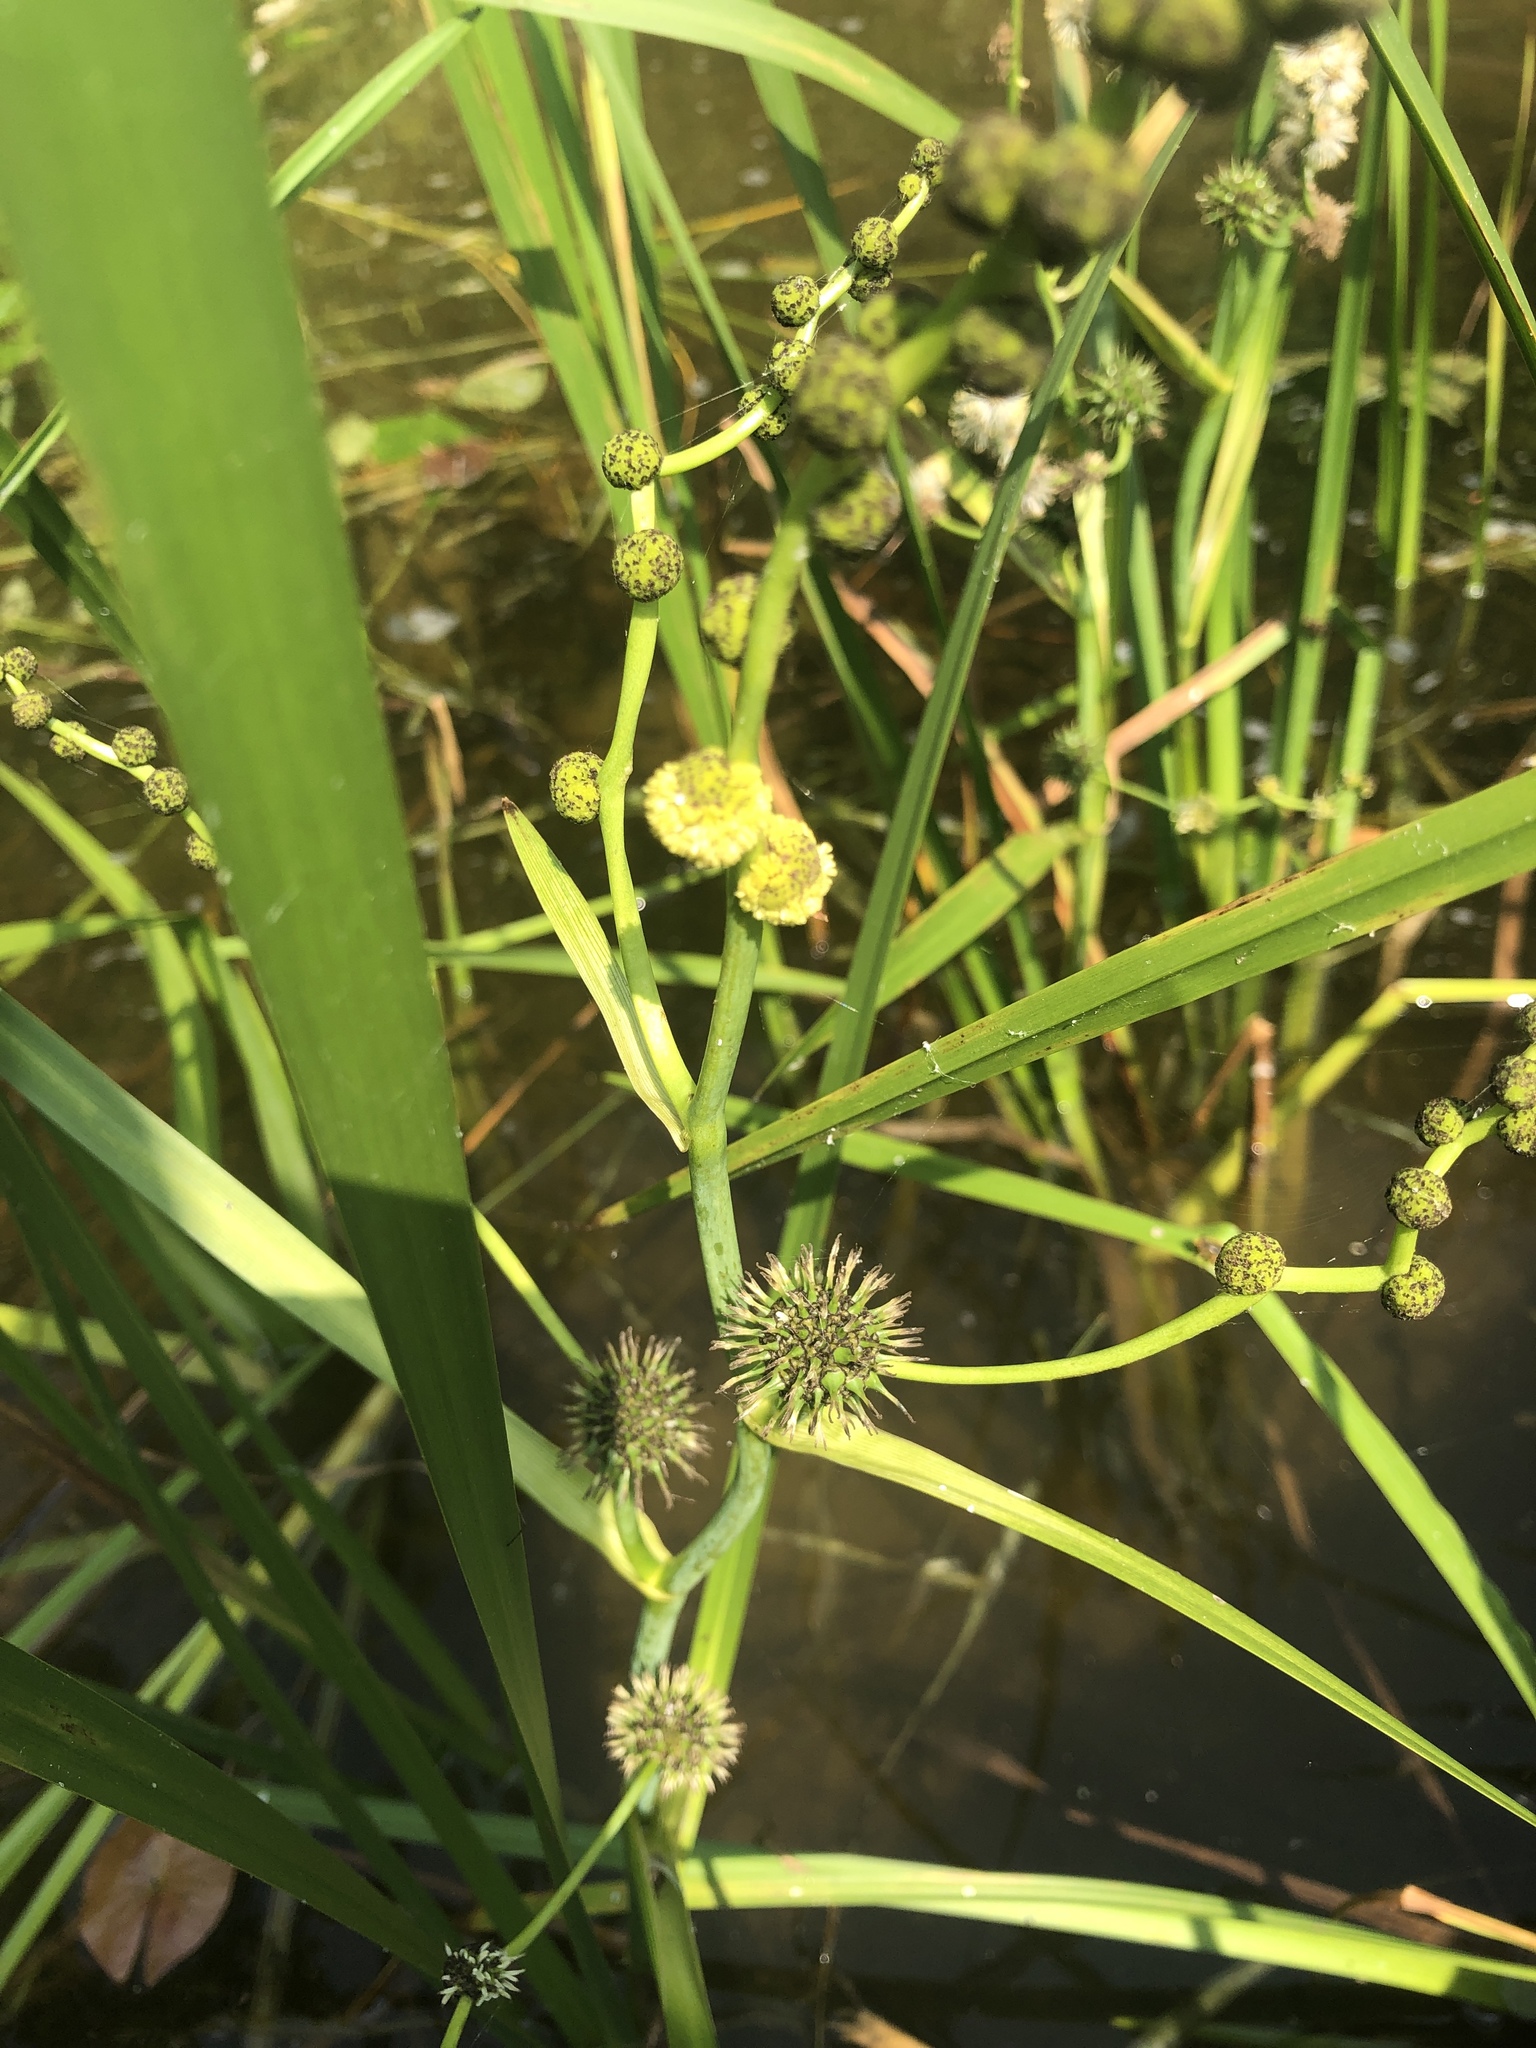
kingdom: Plantae
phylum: Tracheophyta
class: Liliopsida
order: Poales
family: Typhaceae
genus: Sparganium
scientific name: Sparganium eurycarpum
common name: Broad-fruited burreed
